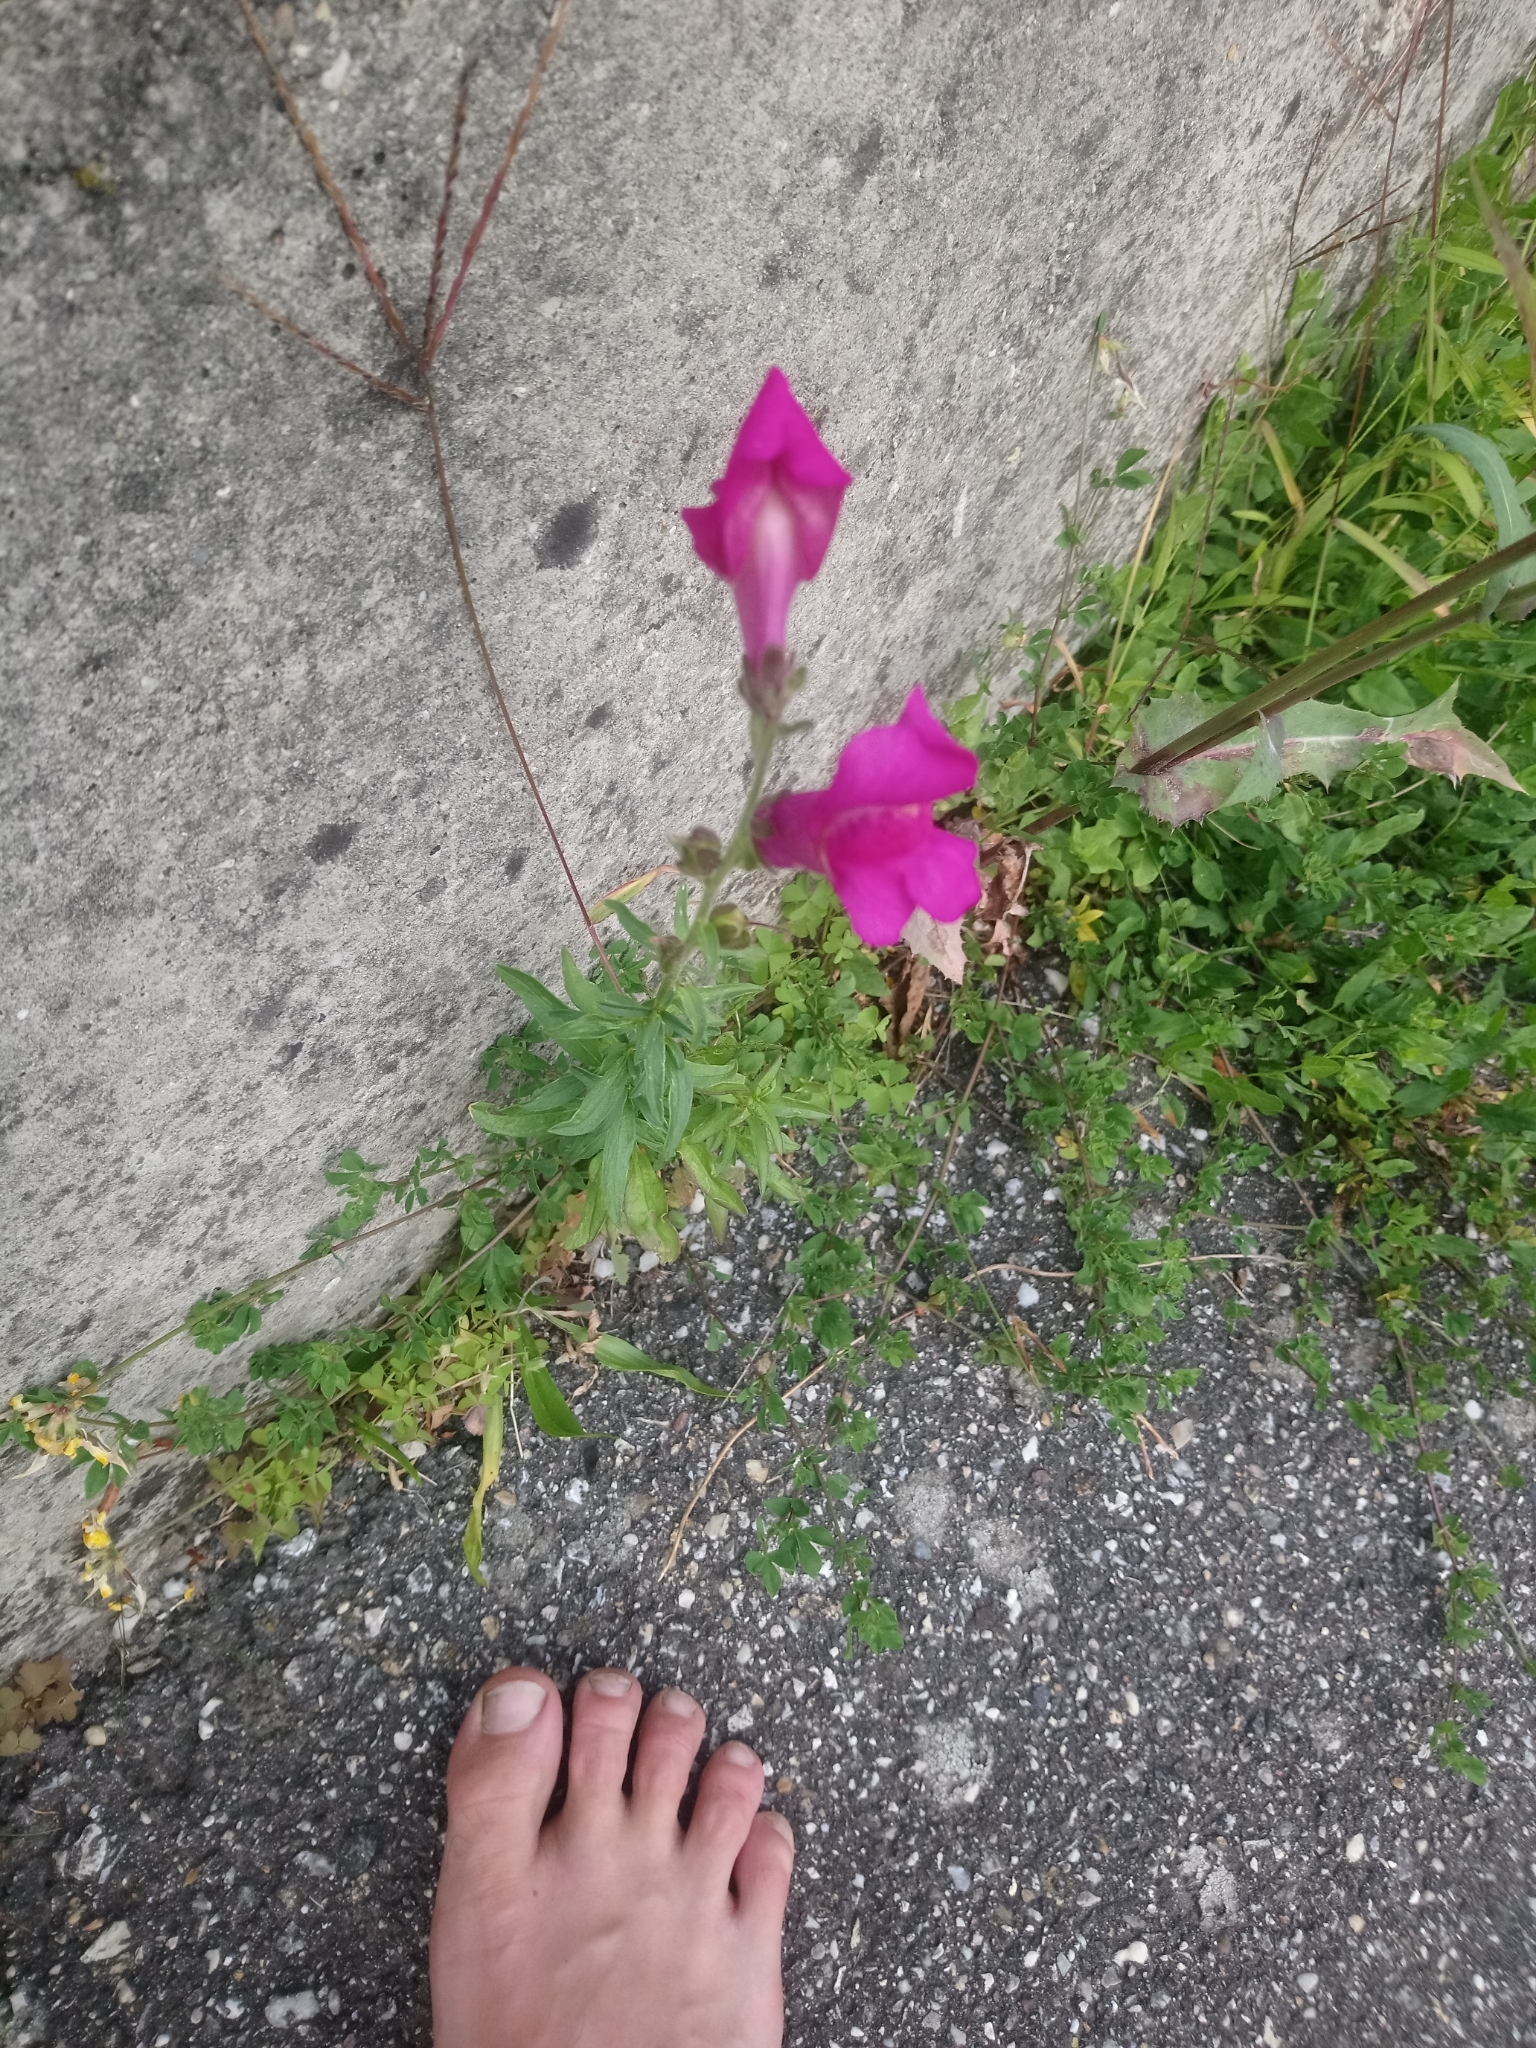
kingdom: Plantae
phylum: Tracheophyta
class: Magnoliopsida
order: Lamiales
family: Plantaginaceae
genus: Antirrhinum
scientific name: Antirrhinum majus
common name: Snapdragon
